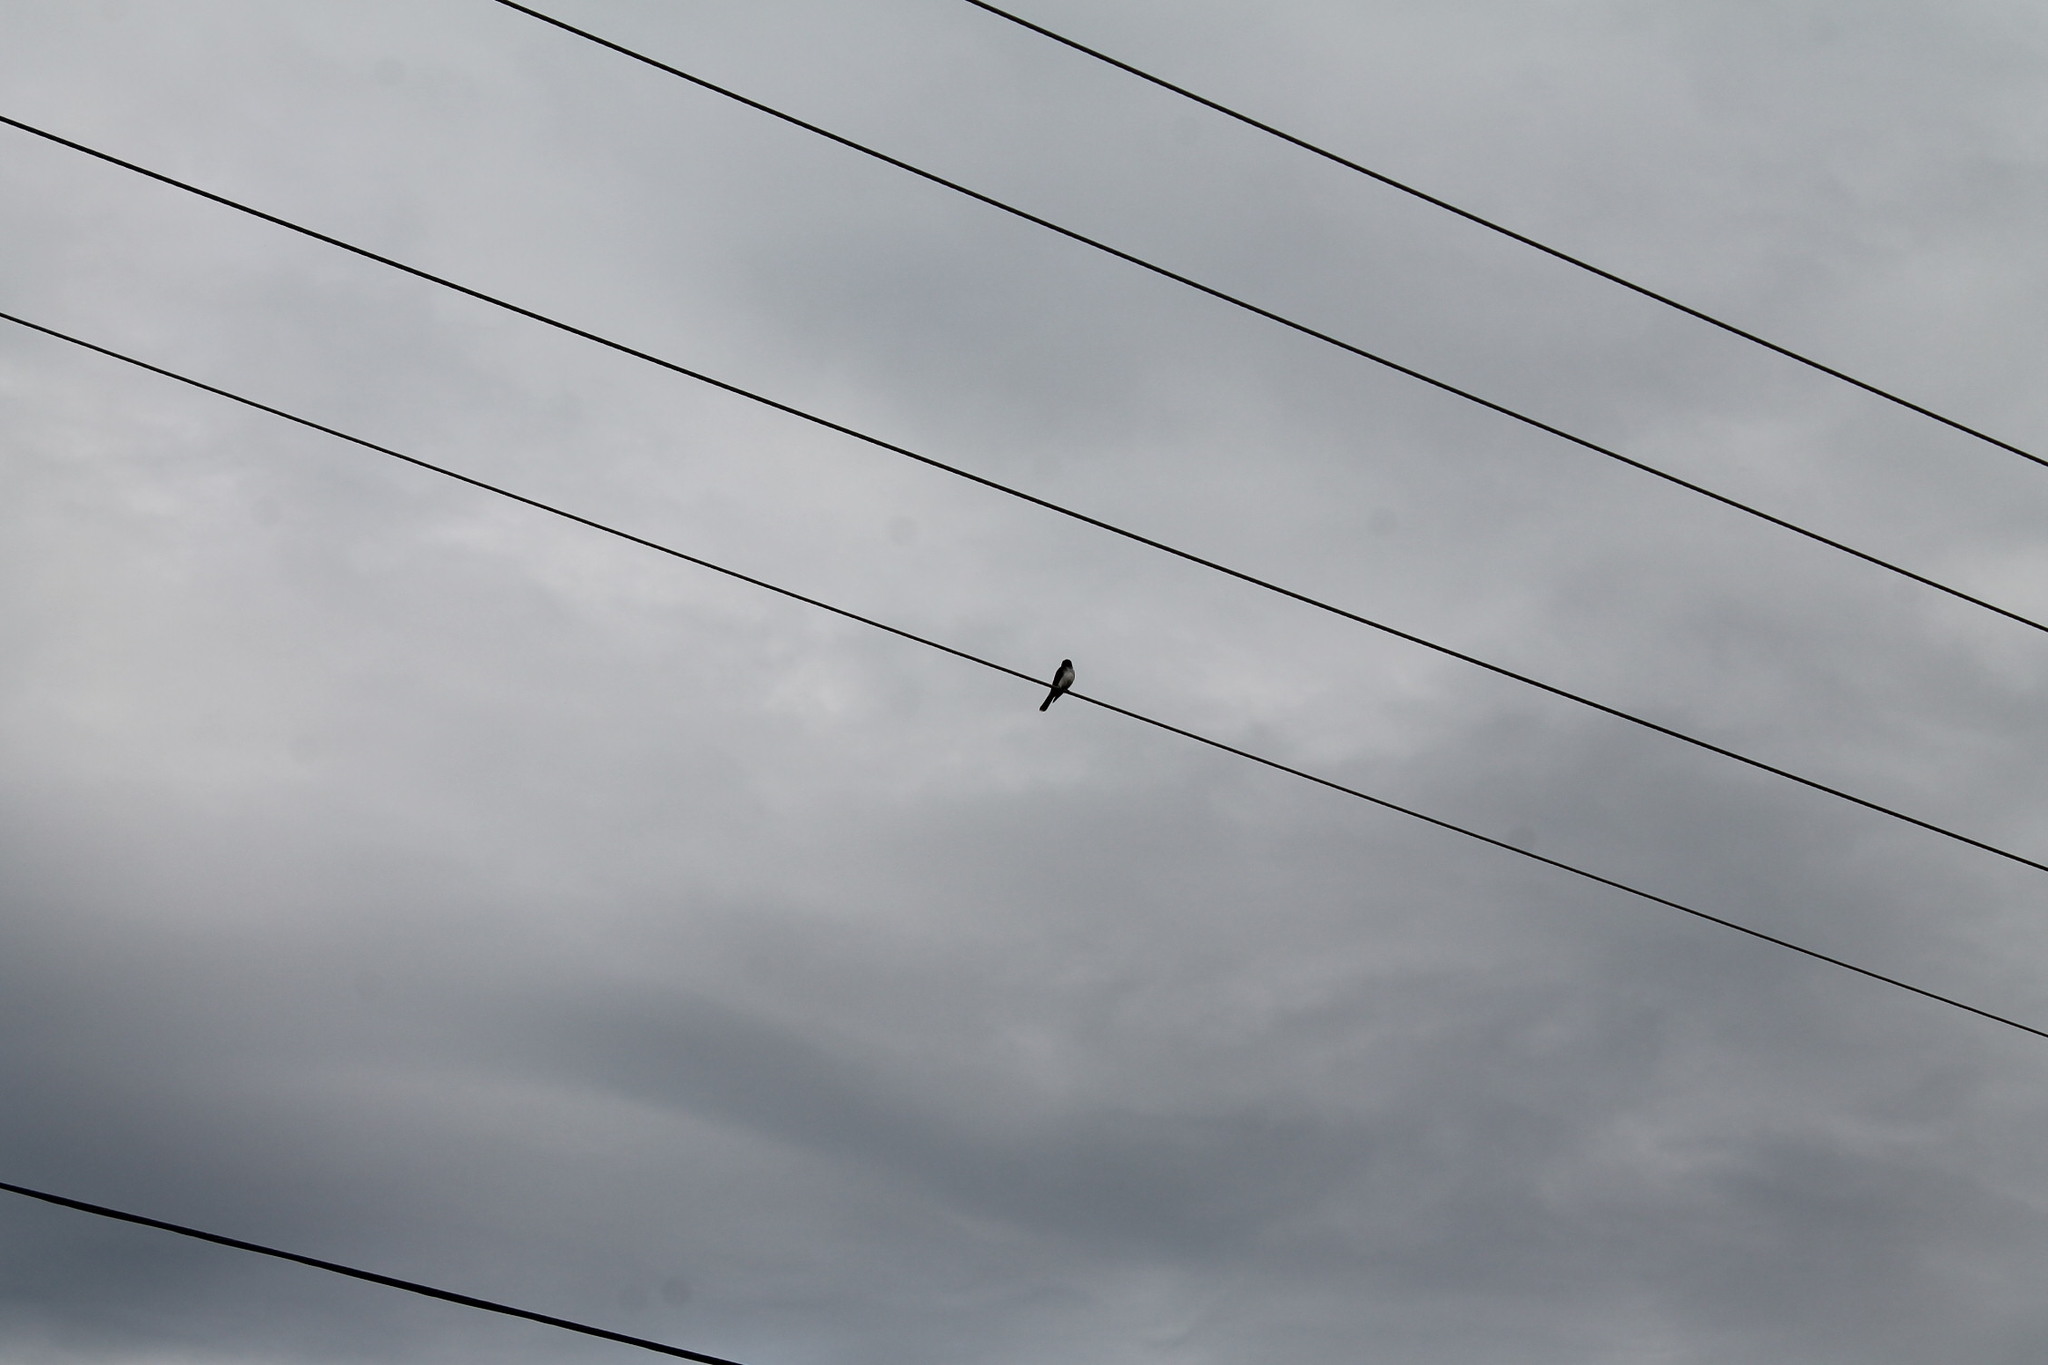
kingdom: Animalia
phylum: Chordata
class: Aves
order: Passeriformes
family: Tyrannidae
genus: Tyrannus
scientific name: Tyrannus tyrannus
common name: Eastern kingbird
